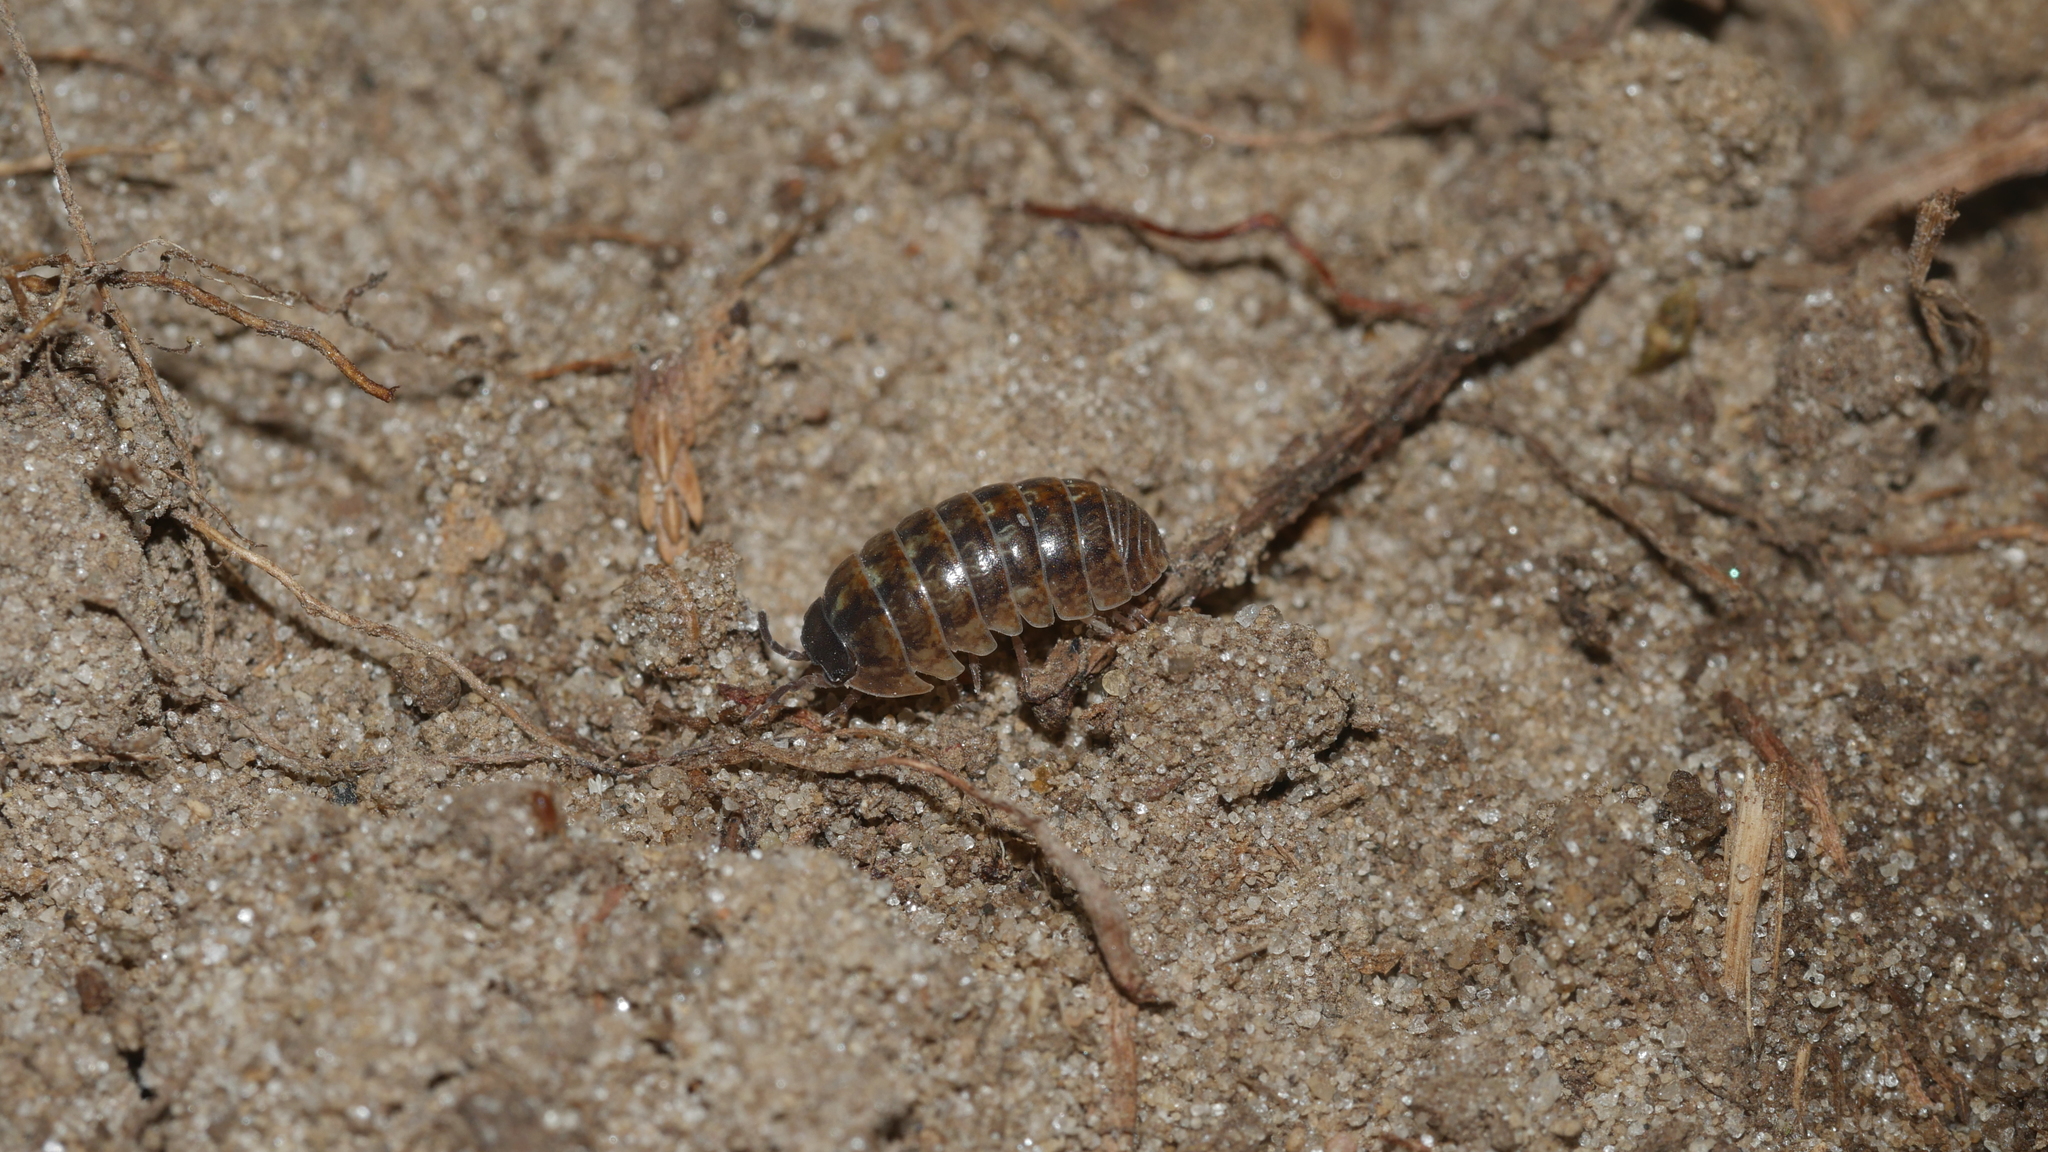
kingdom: Animalia
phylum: Arthropoda
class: Malacostraca
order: Isopoda
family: Armadillidiidae
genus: Armadillidium
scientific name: Armadillidium vulgare
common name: Common pill woodlouse
